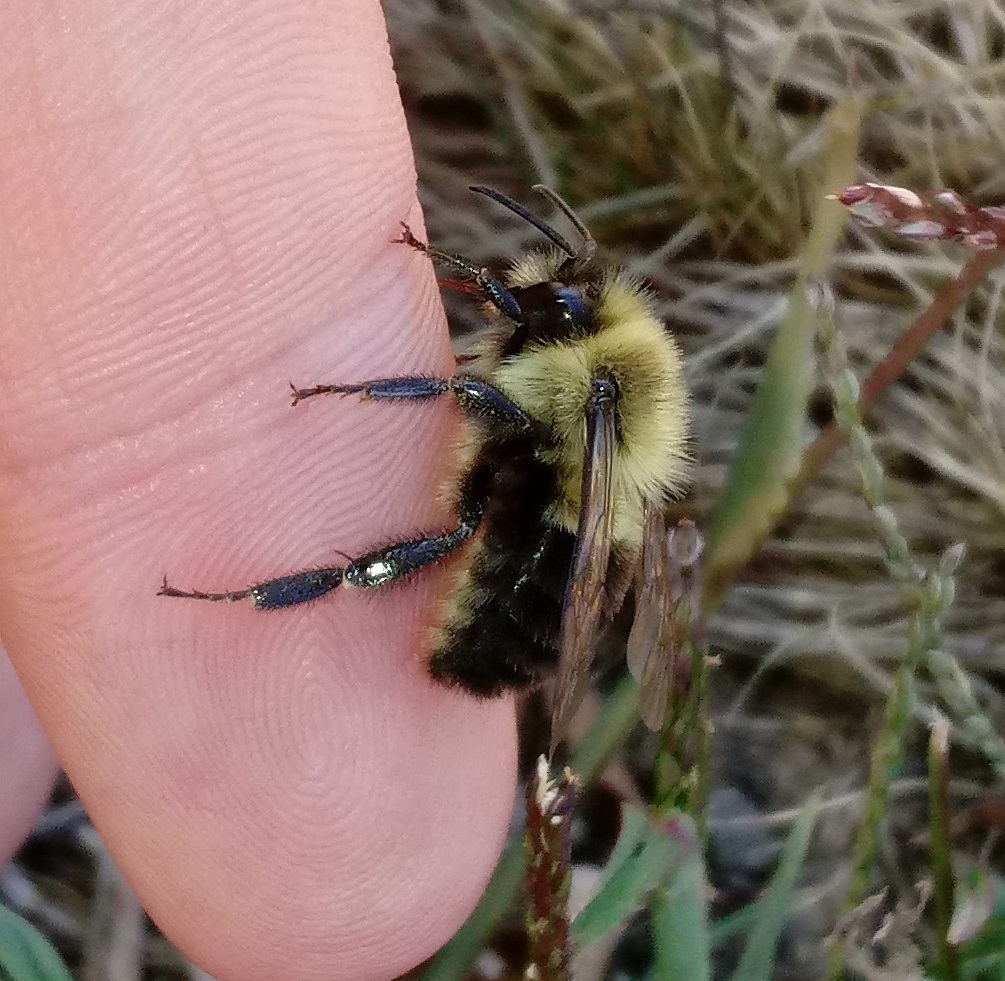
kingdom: Animalia
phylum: Arthropoda
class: Insecta
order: Hymenoptera
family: Apidae
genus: Bombus
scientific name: Bombus impatiens
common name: Common eastern bumble bee
